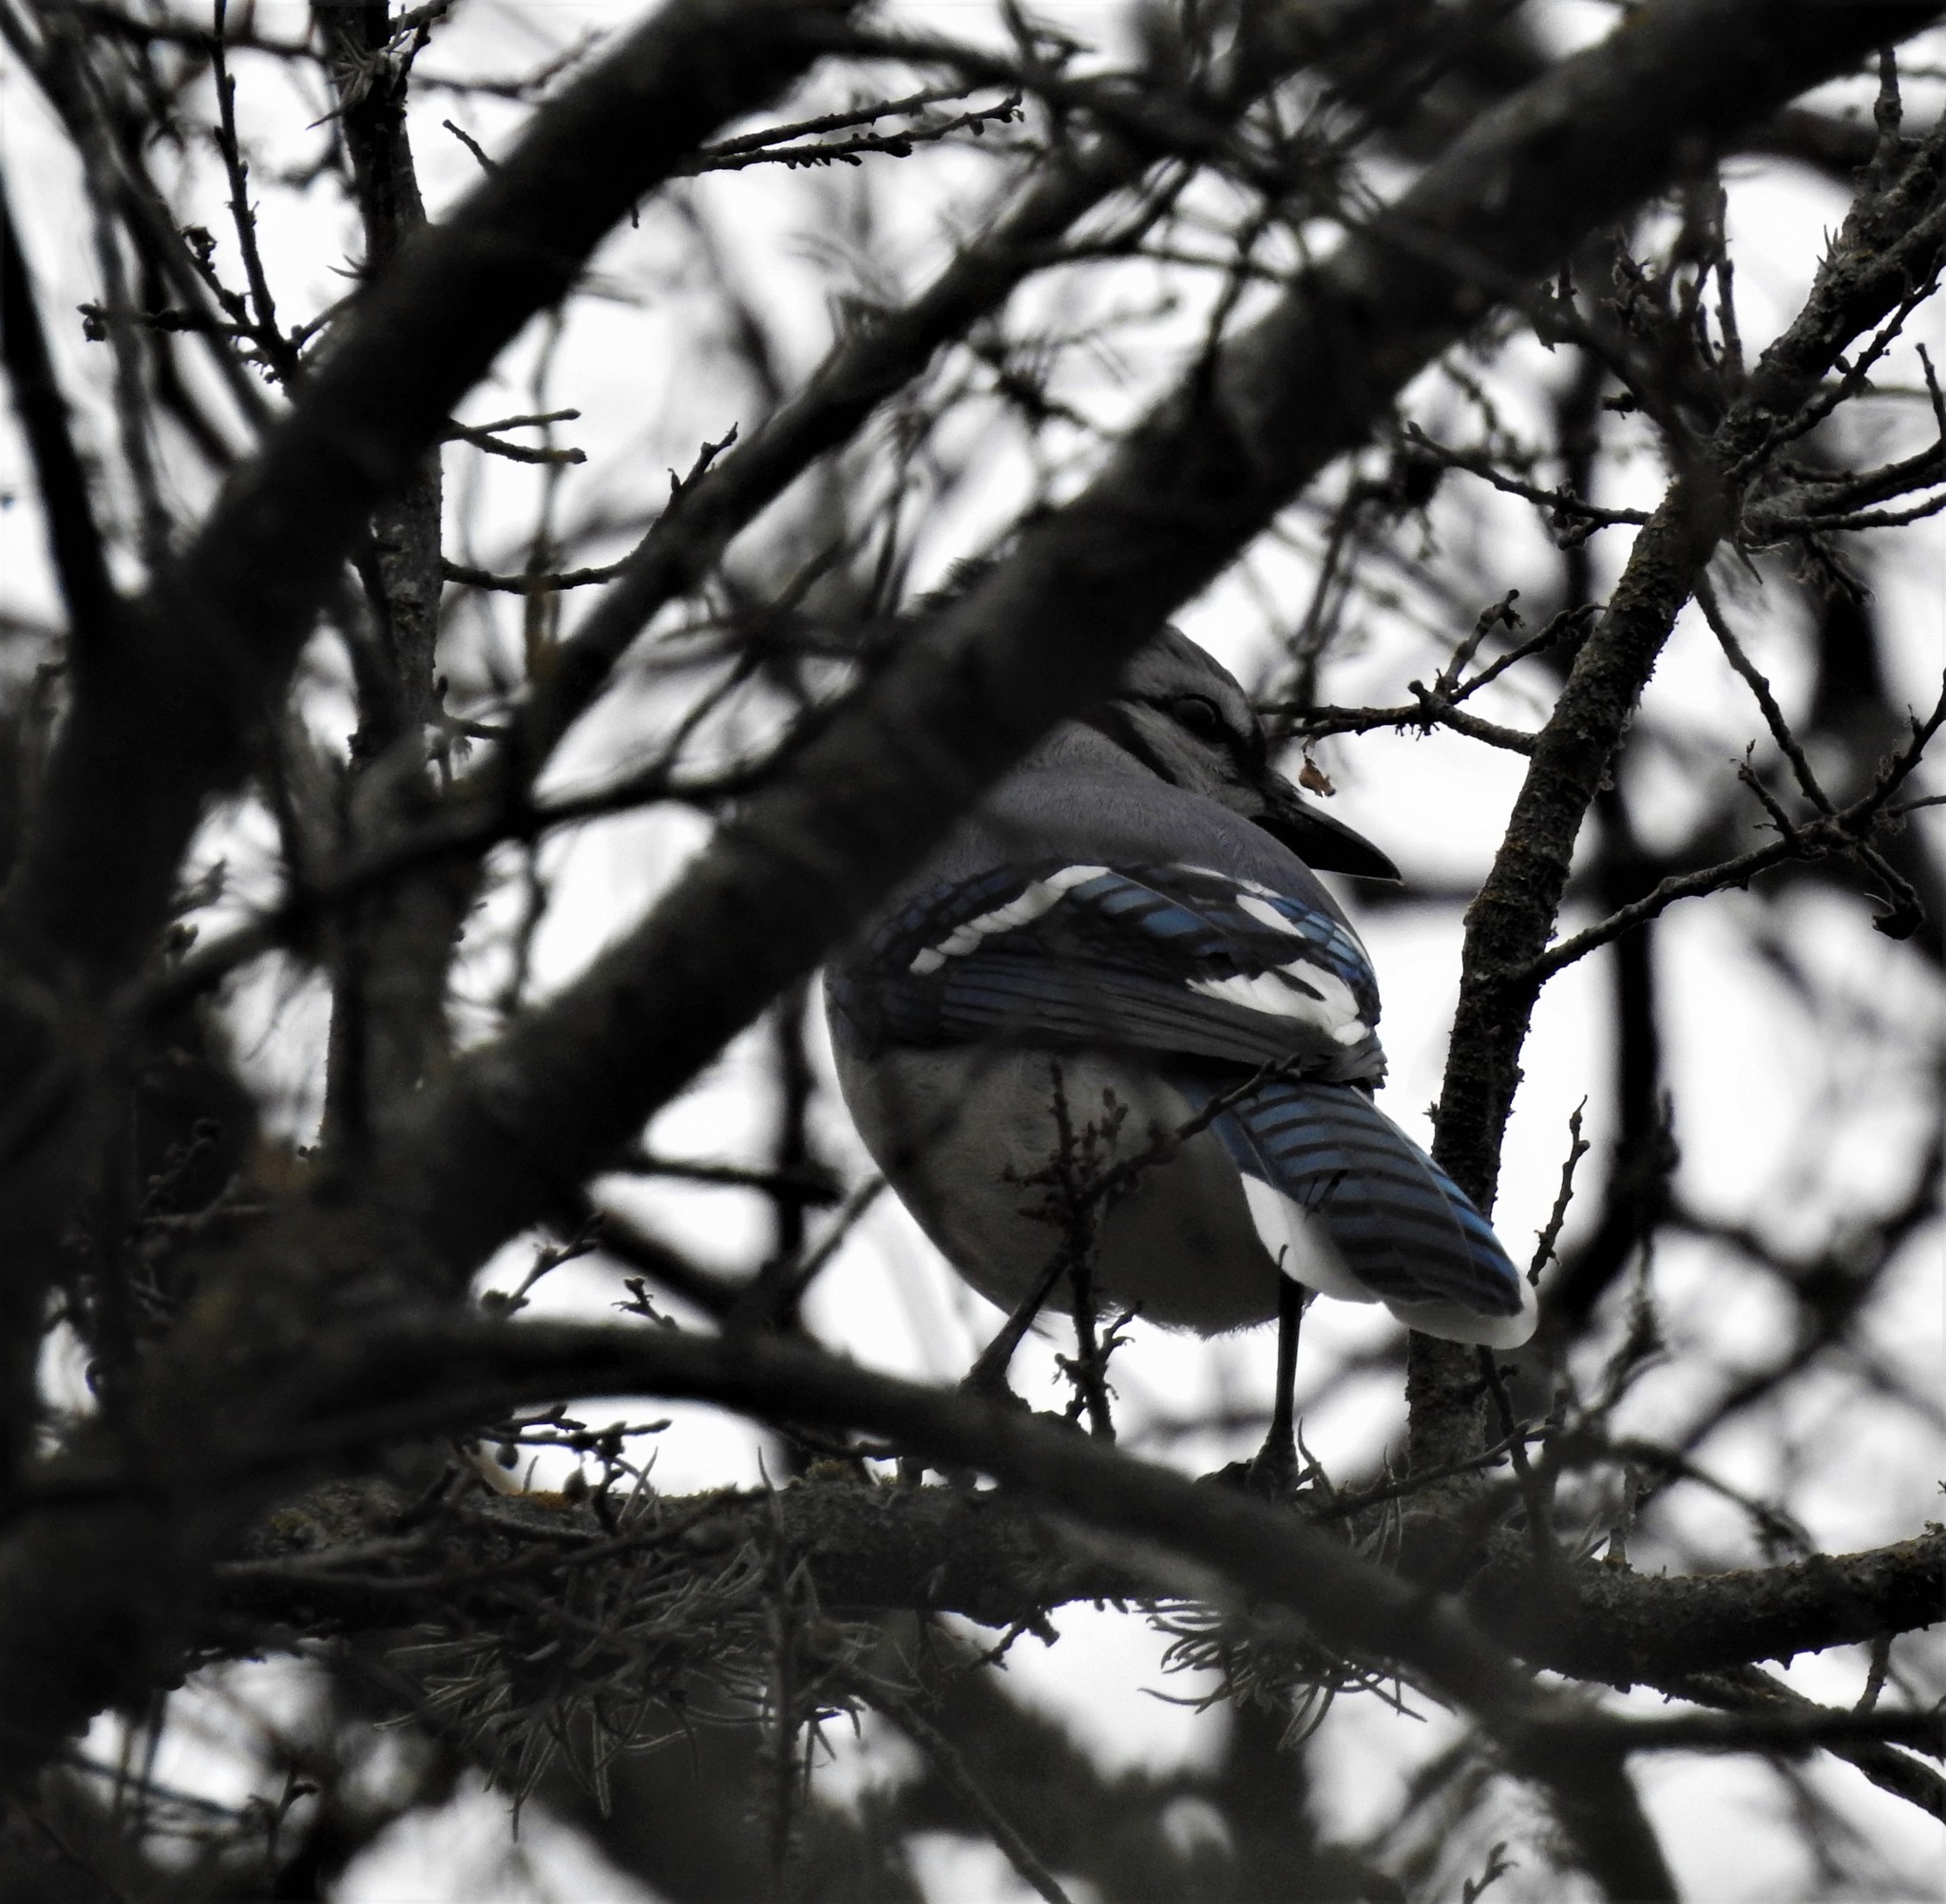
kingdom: Animalia
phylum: Chordata
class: Aves
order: Passeriformes
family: Corvidae
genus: Cyanocitta
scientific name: Cyanocitta cristata
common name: Blue jay
